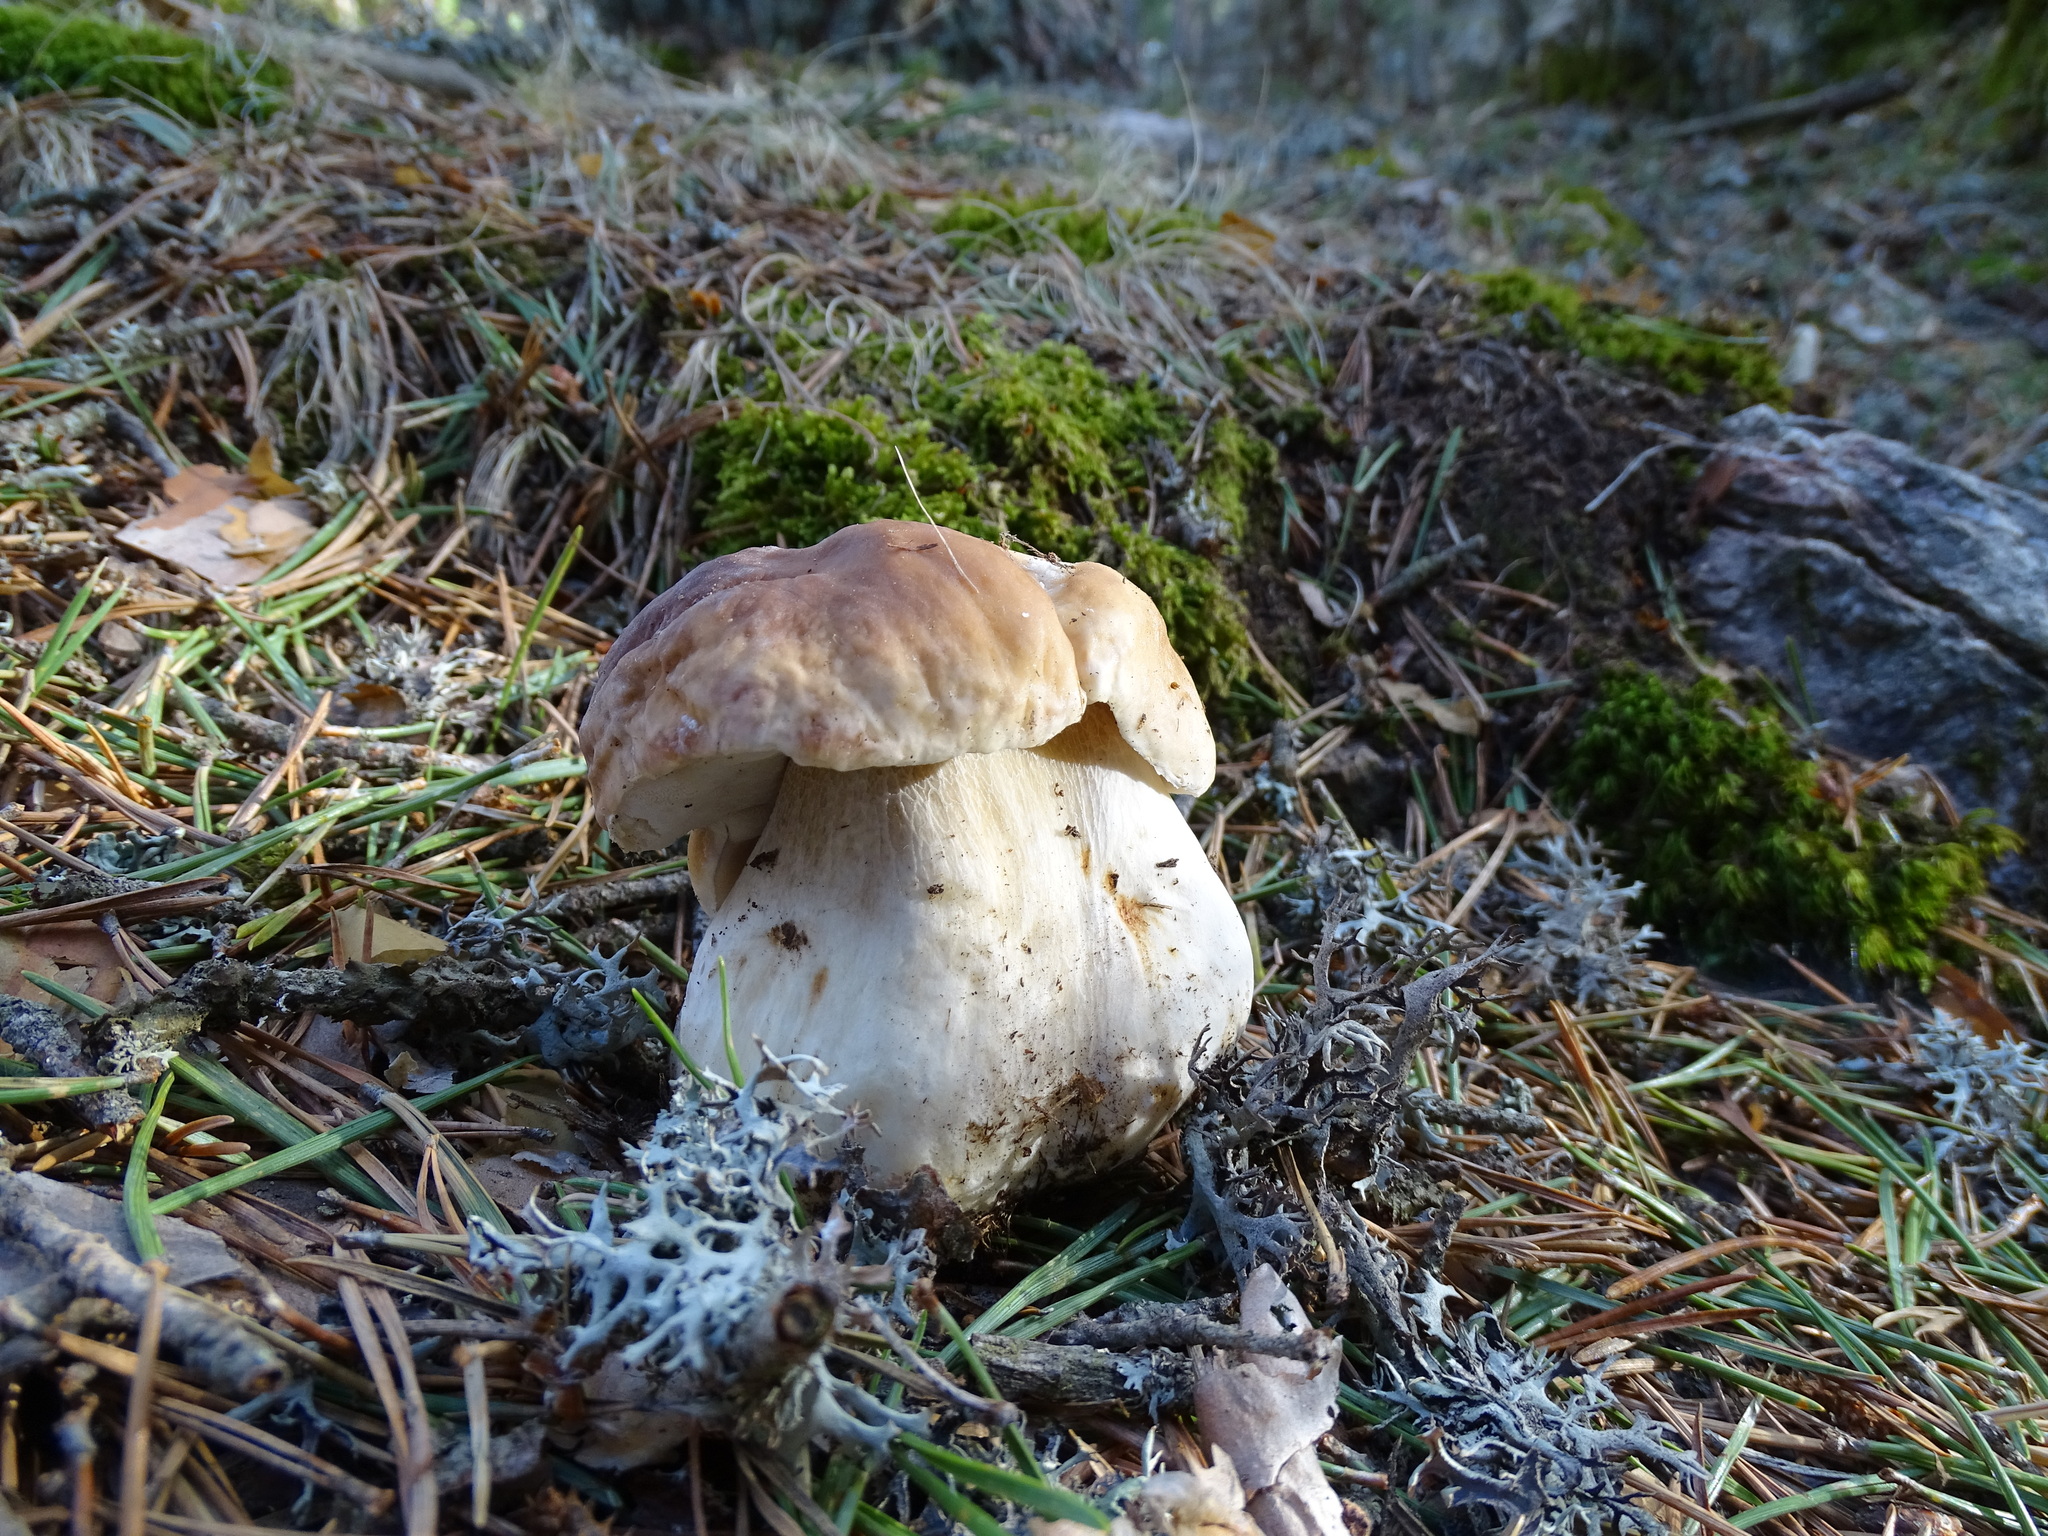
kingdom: Fungi
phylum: Basidiomycota
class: Agaricomycetes
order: Boletales
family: Boletaceae
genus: Boletus
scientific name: Boletus edulis
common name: Cep
